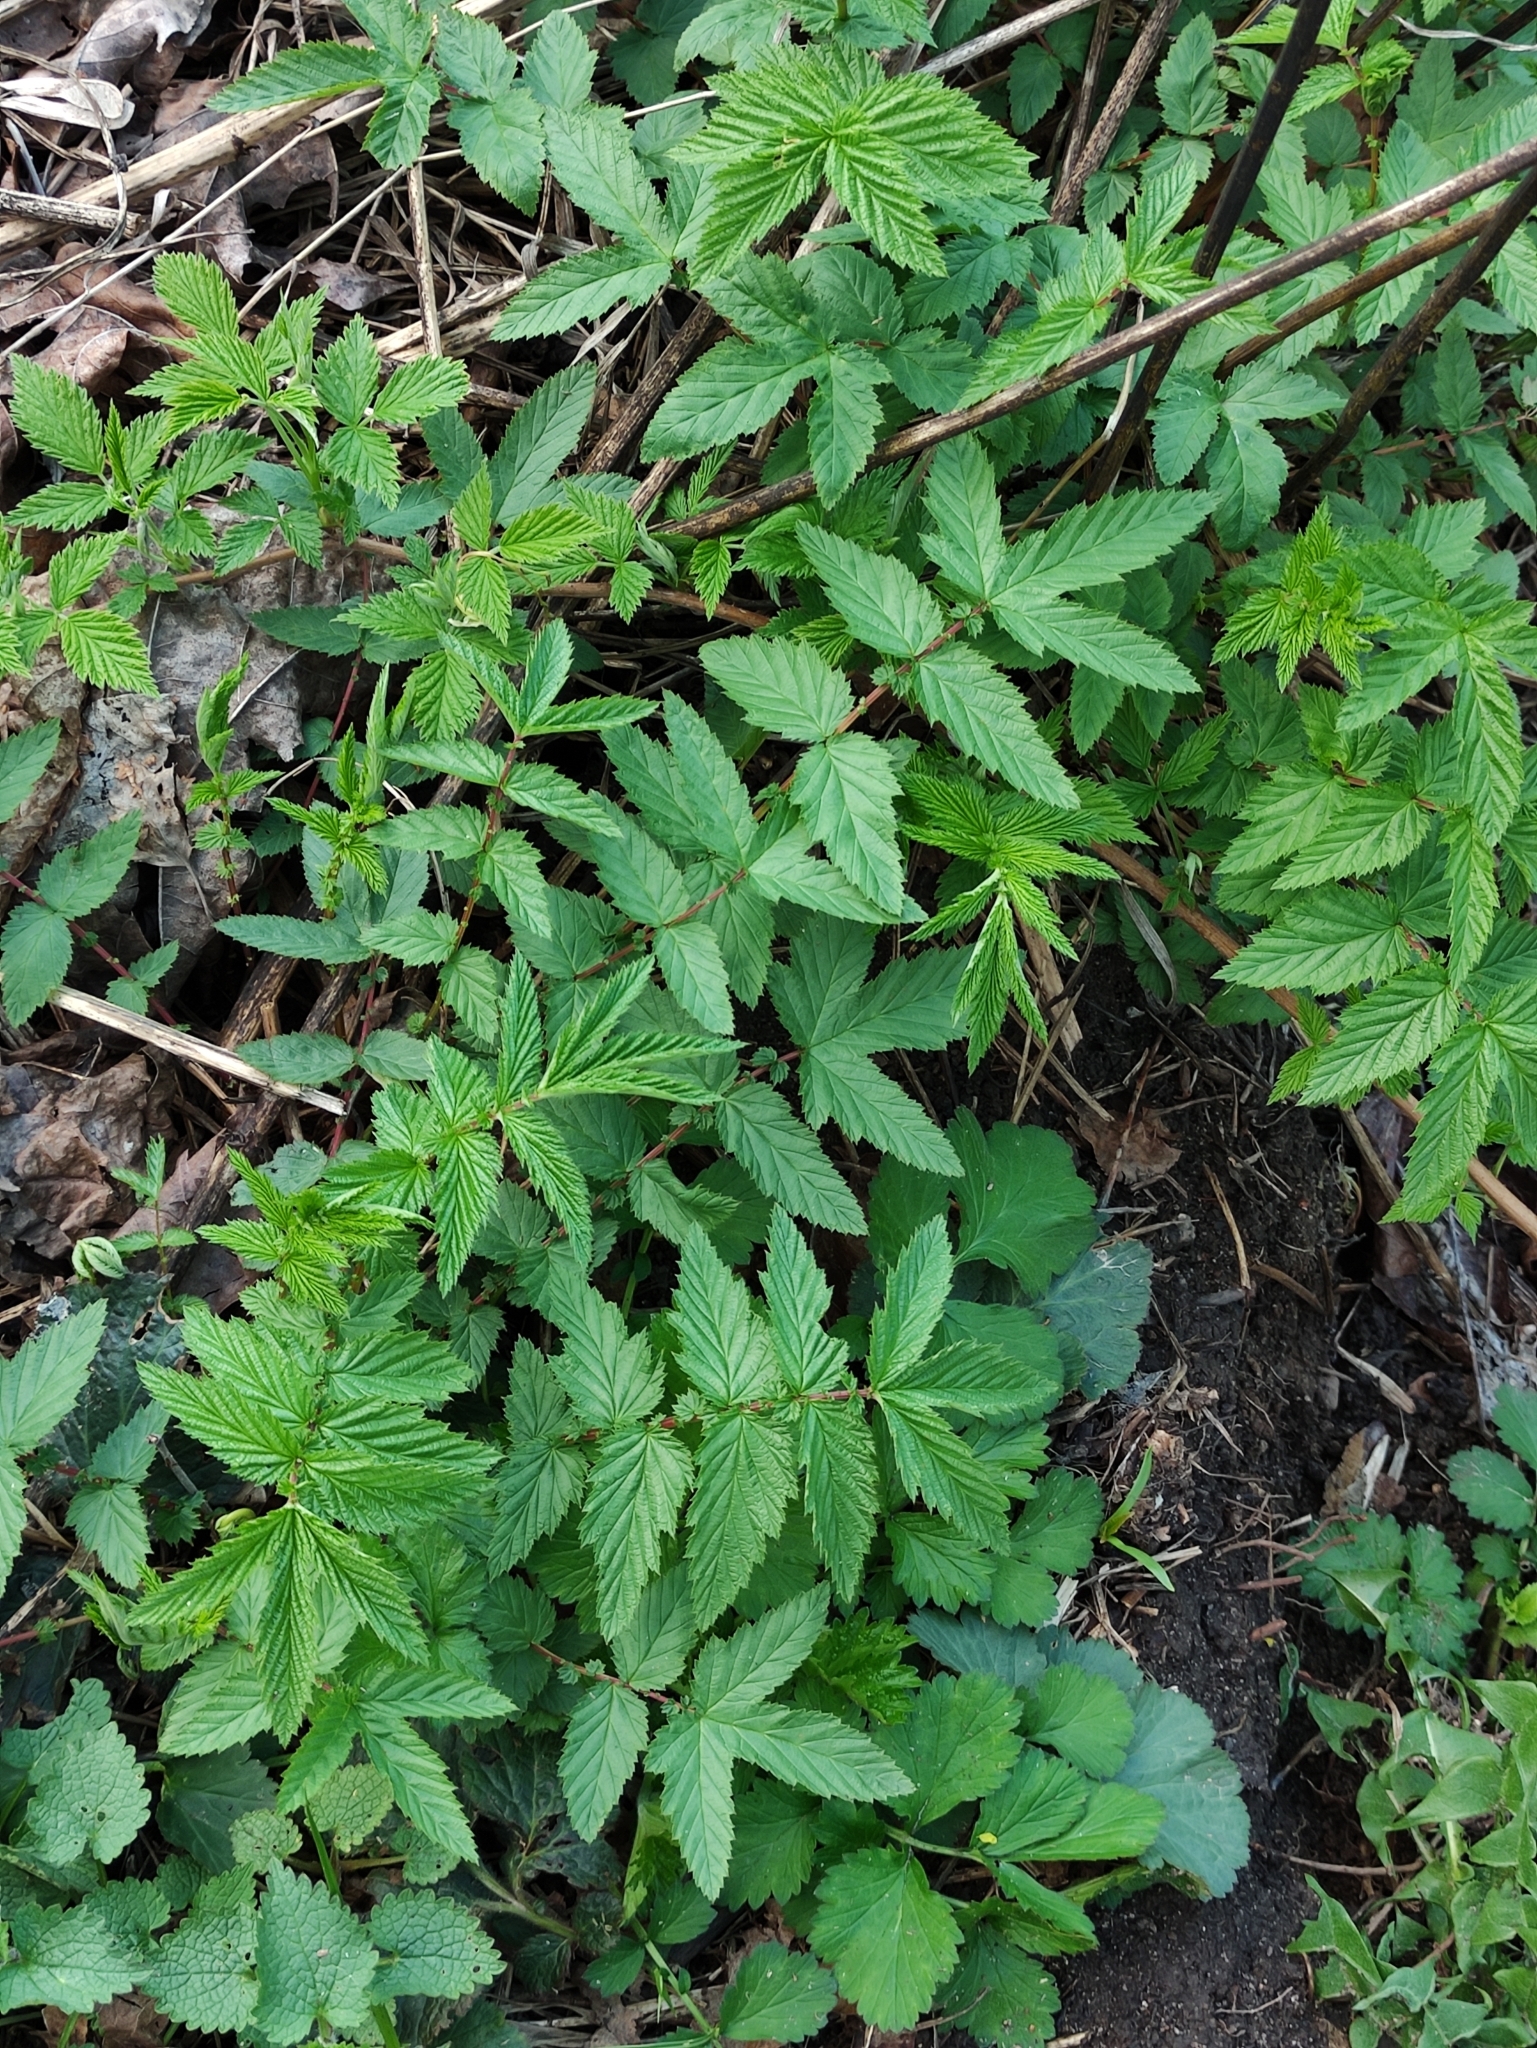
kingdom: Plantae
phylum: Tracheophyta
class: Magnoliopsida
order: Rosales
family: Rosaceae
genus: Filipendula
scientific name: Filipendula ulmaria
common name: Meadowsweet
